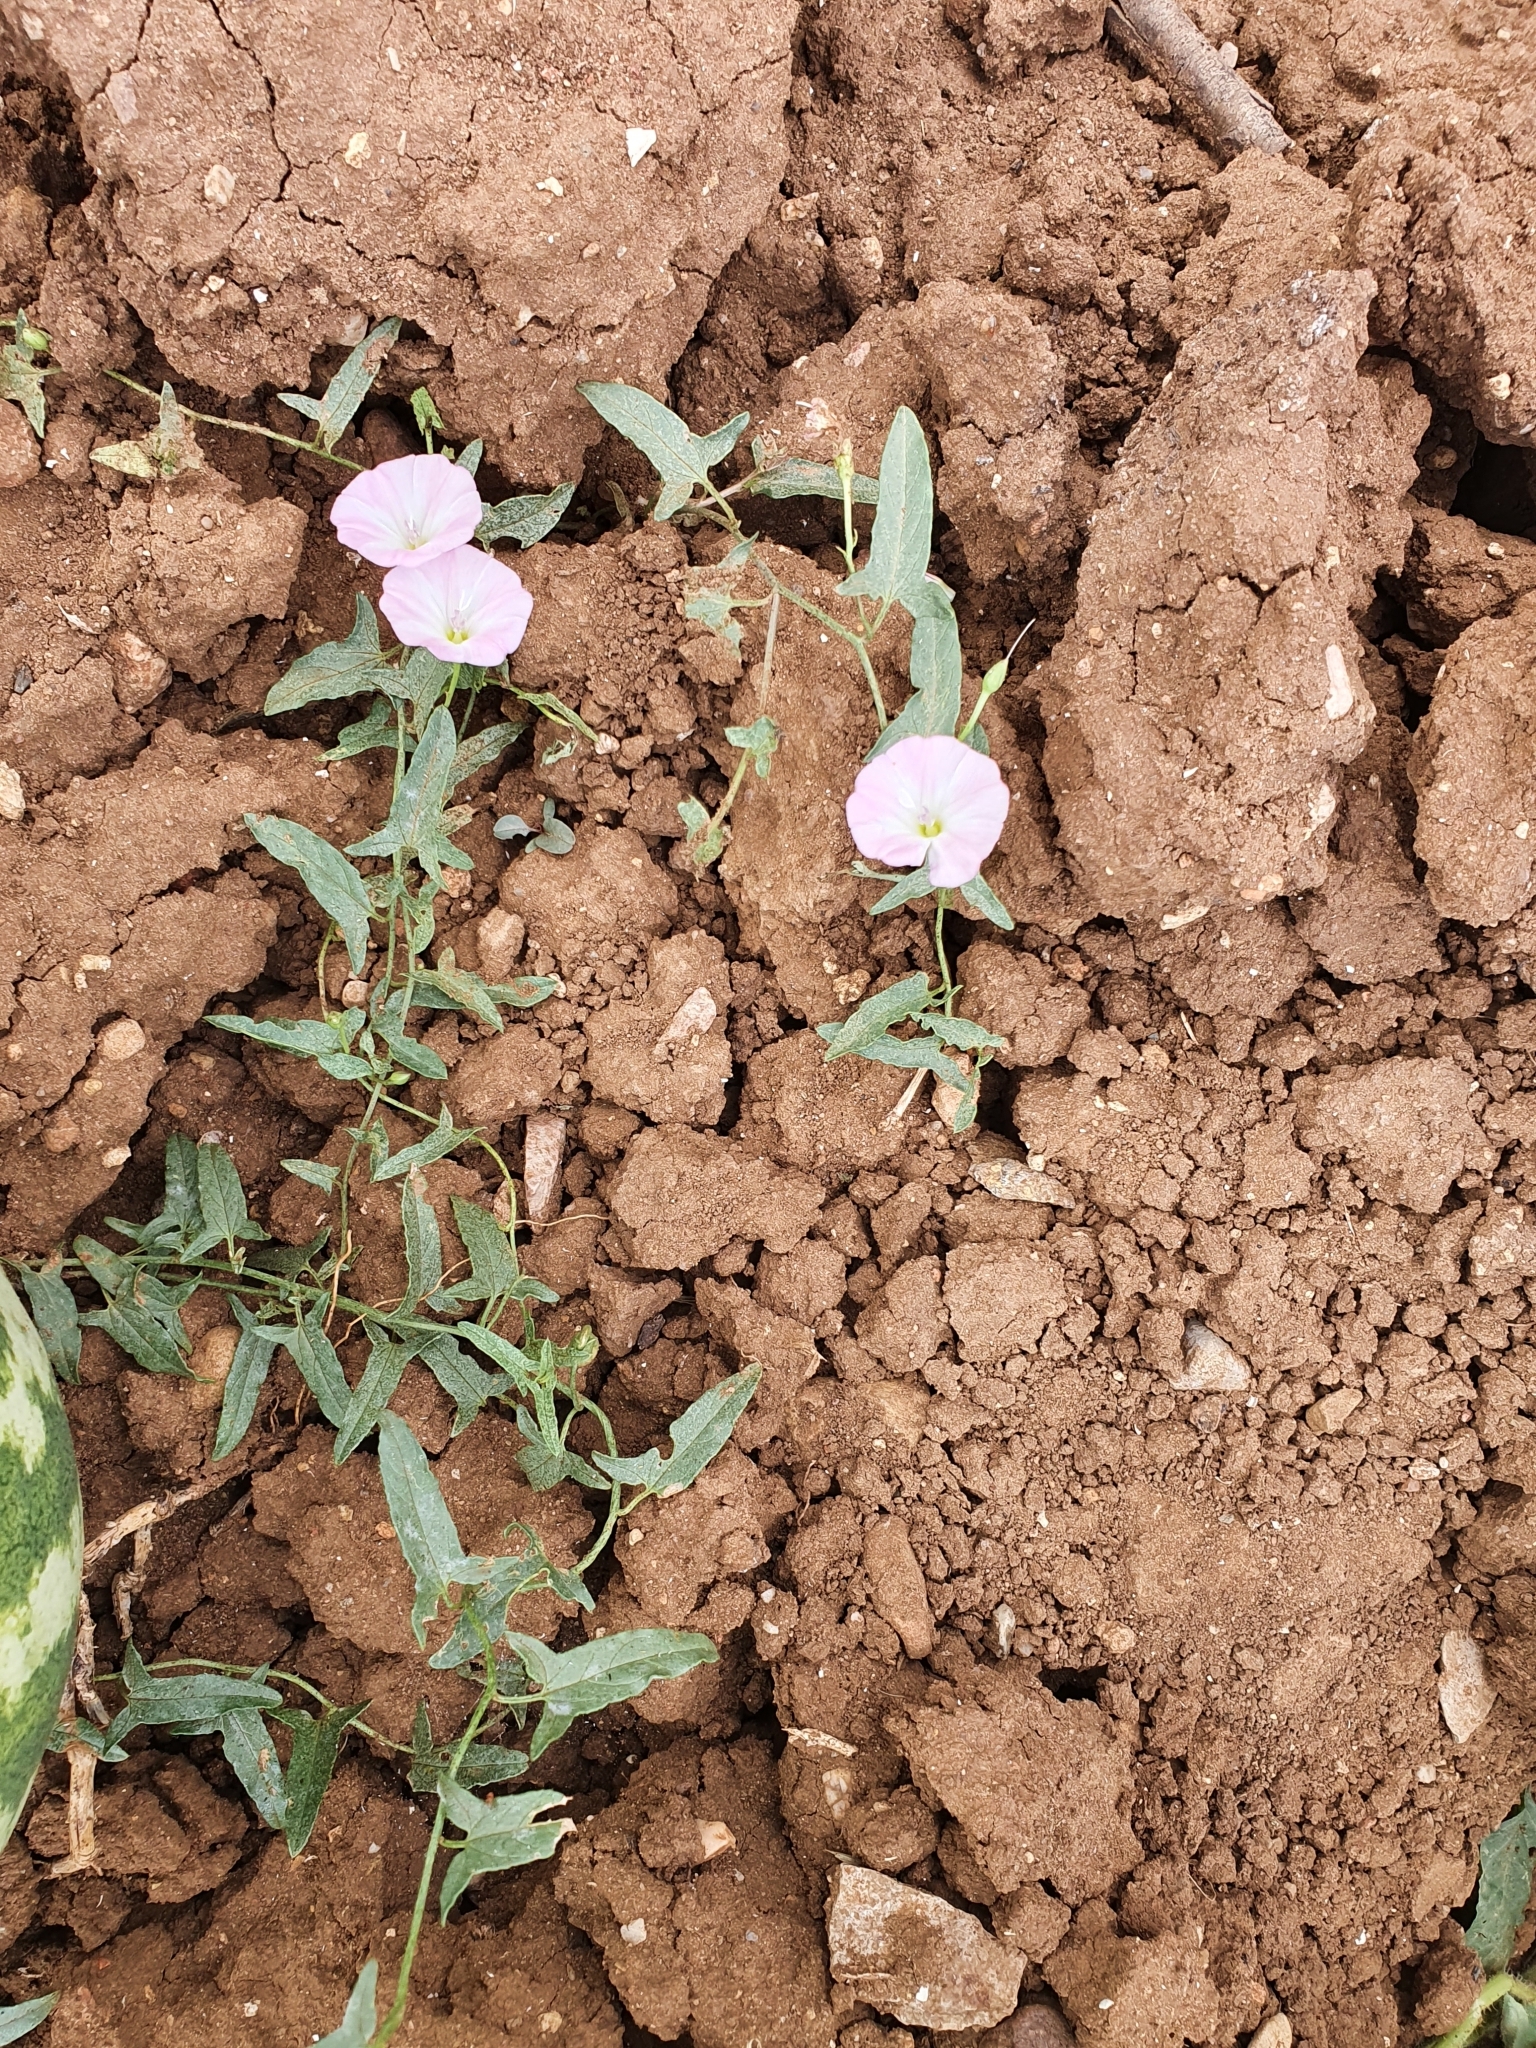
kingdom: Plantae
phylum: Tracheophyta
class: Magnoliopsida
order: Solanales
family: Convolvulaceae
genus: Convolvulus
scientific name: Convolvulus arvensis
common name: Field bindweed
